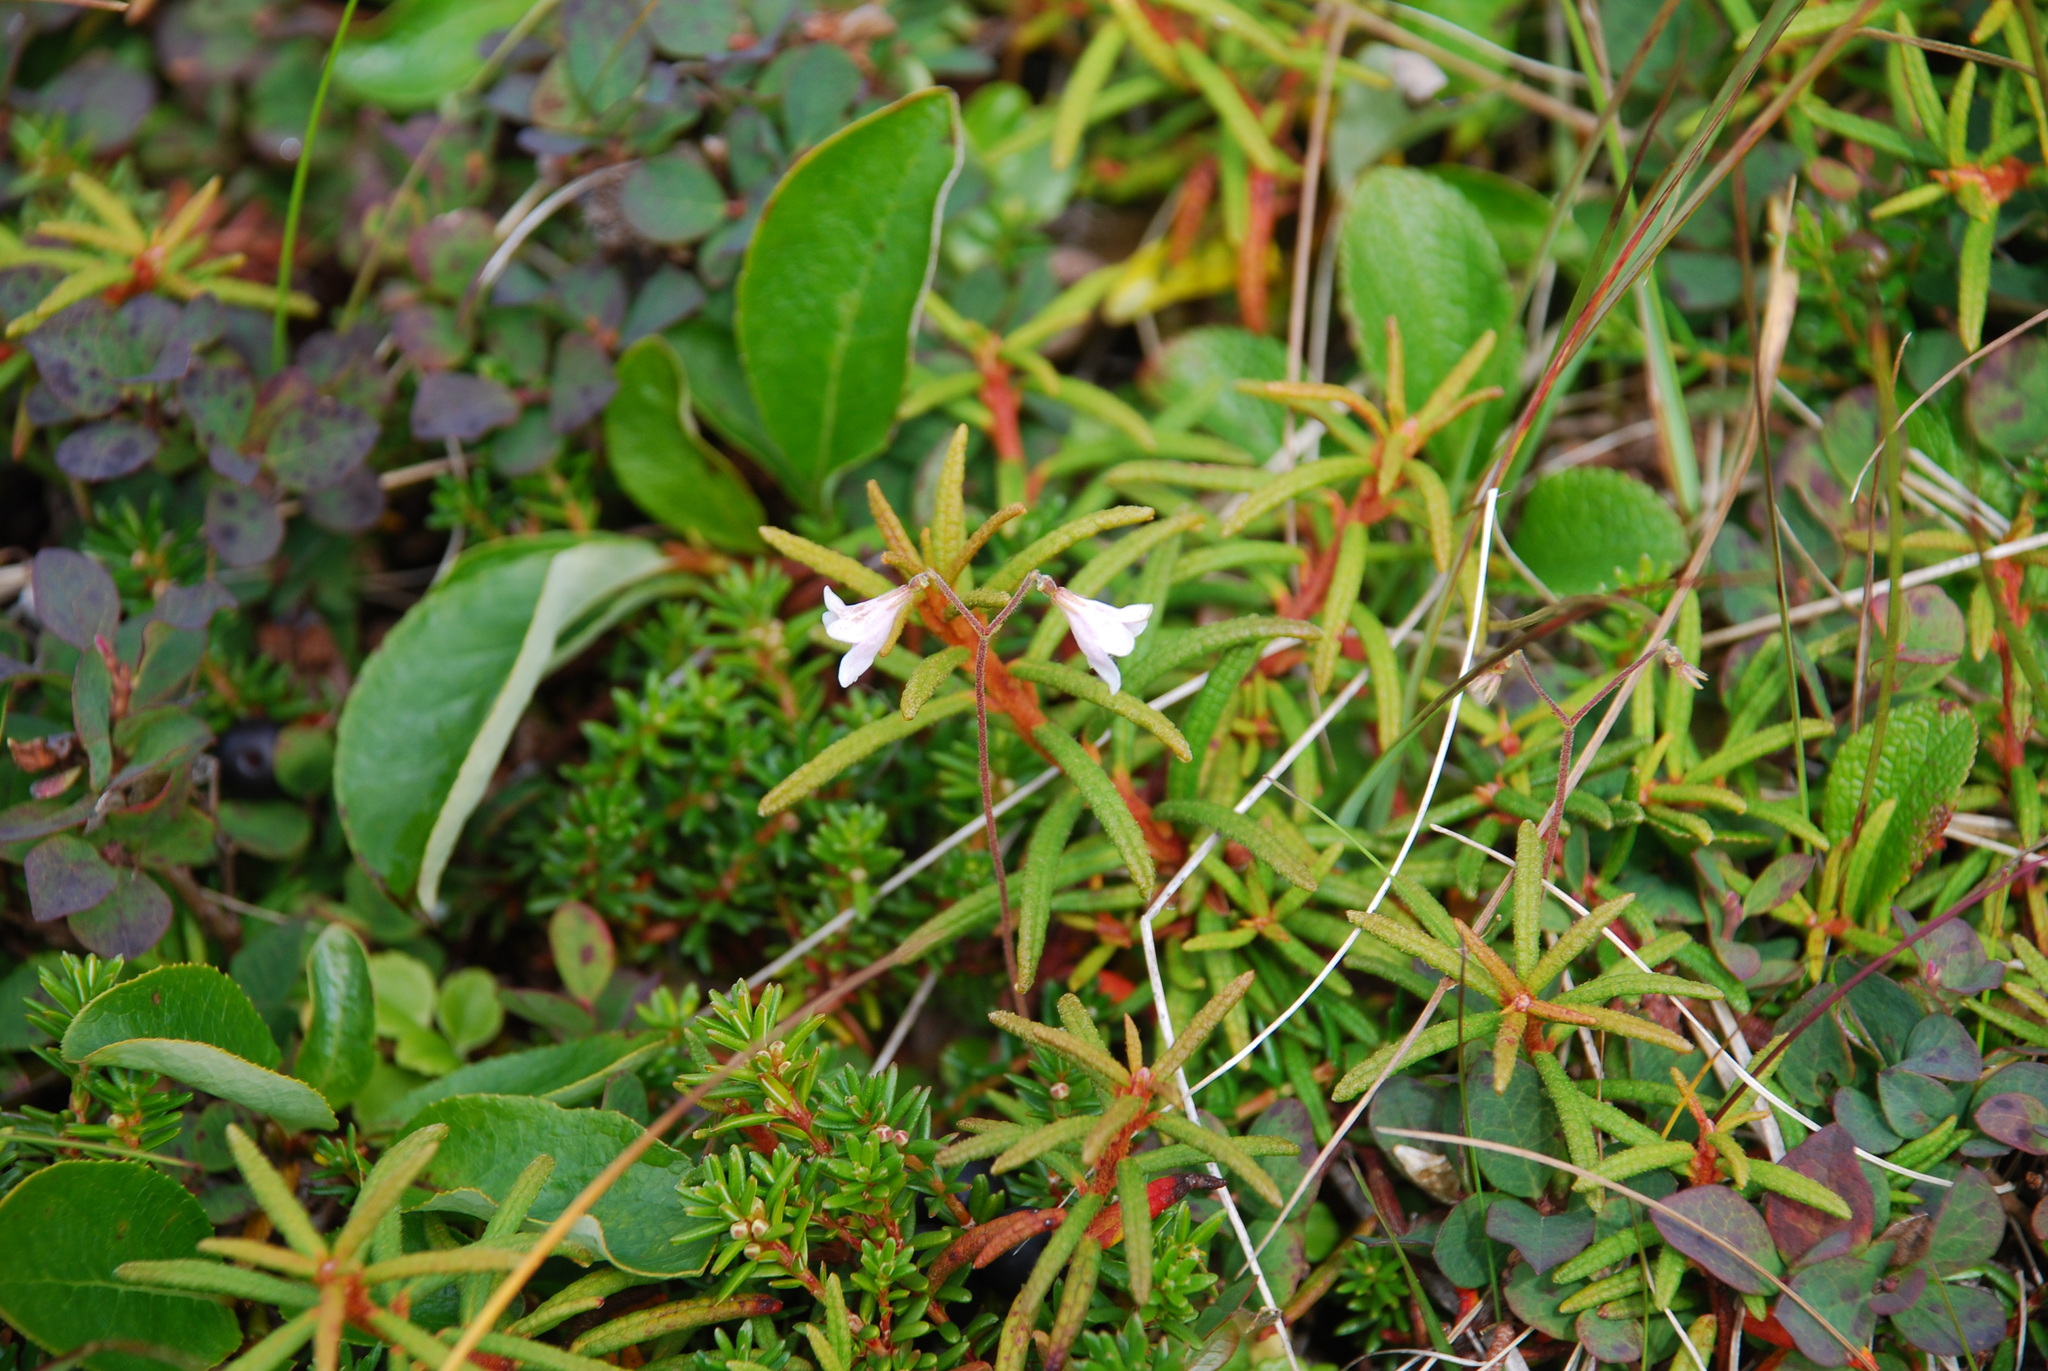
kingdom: Plantae
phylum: Tracheophyta
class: Magnoliopsida
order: Dipsacales
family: Caprifoliaceae
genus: Linnaea
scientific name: Linnaea borealis
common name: Twinflower
